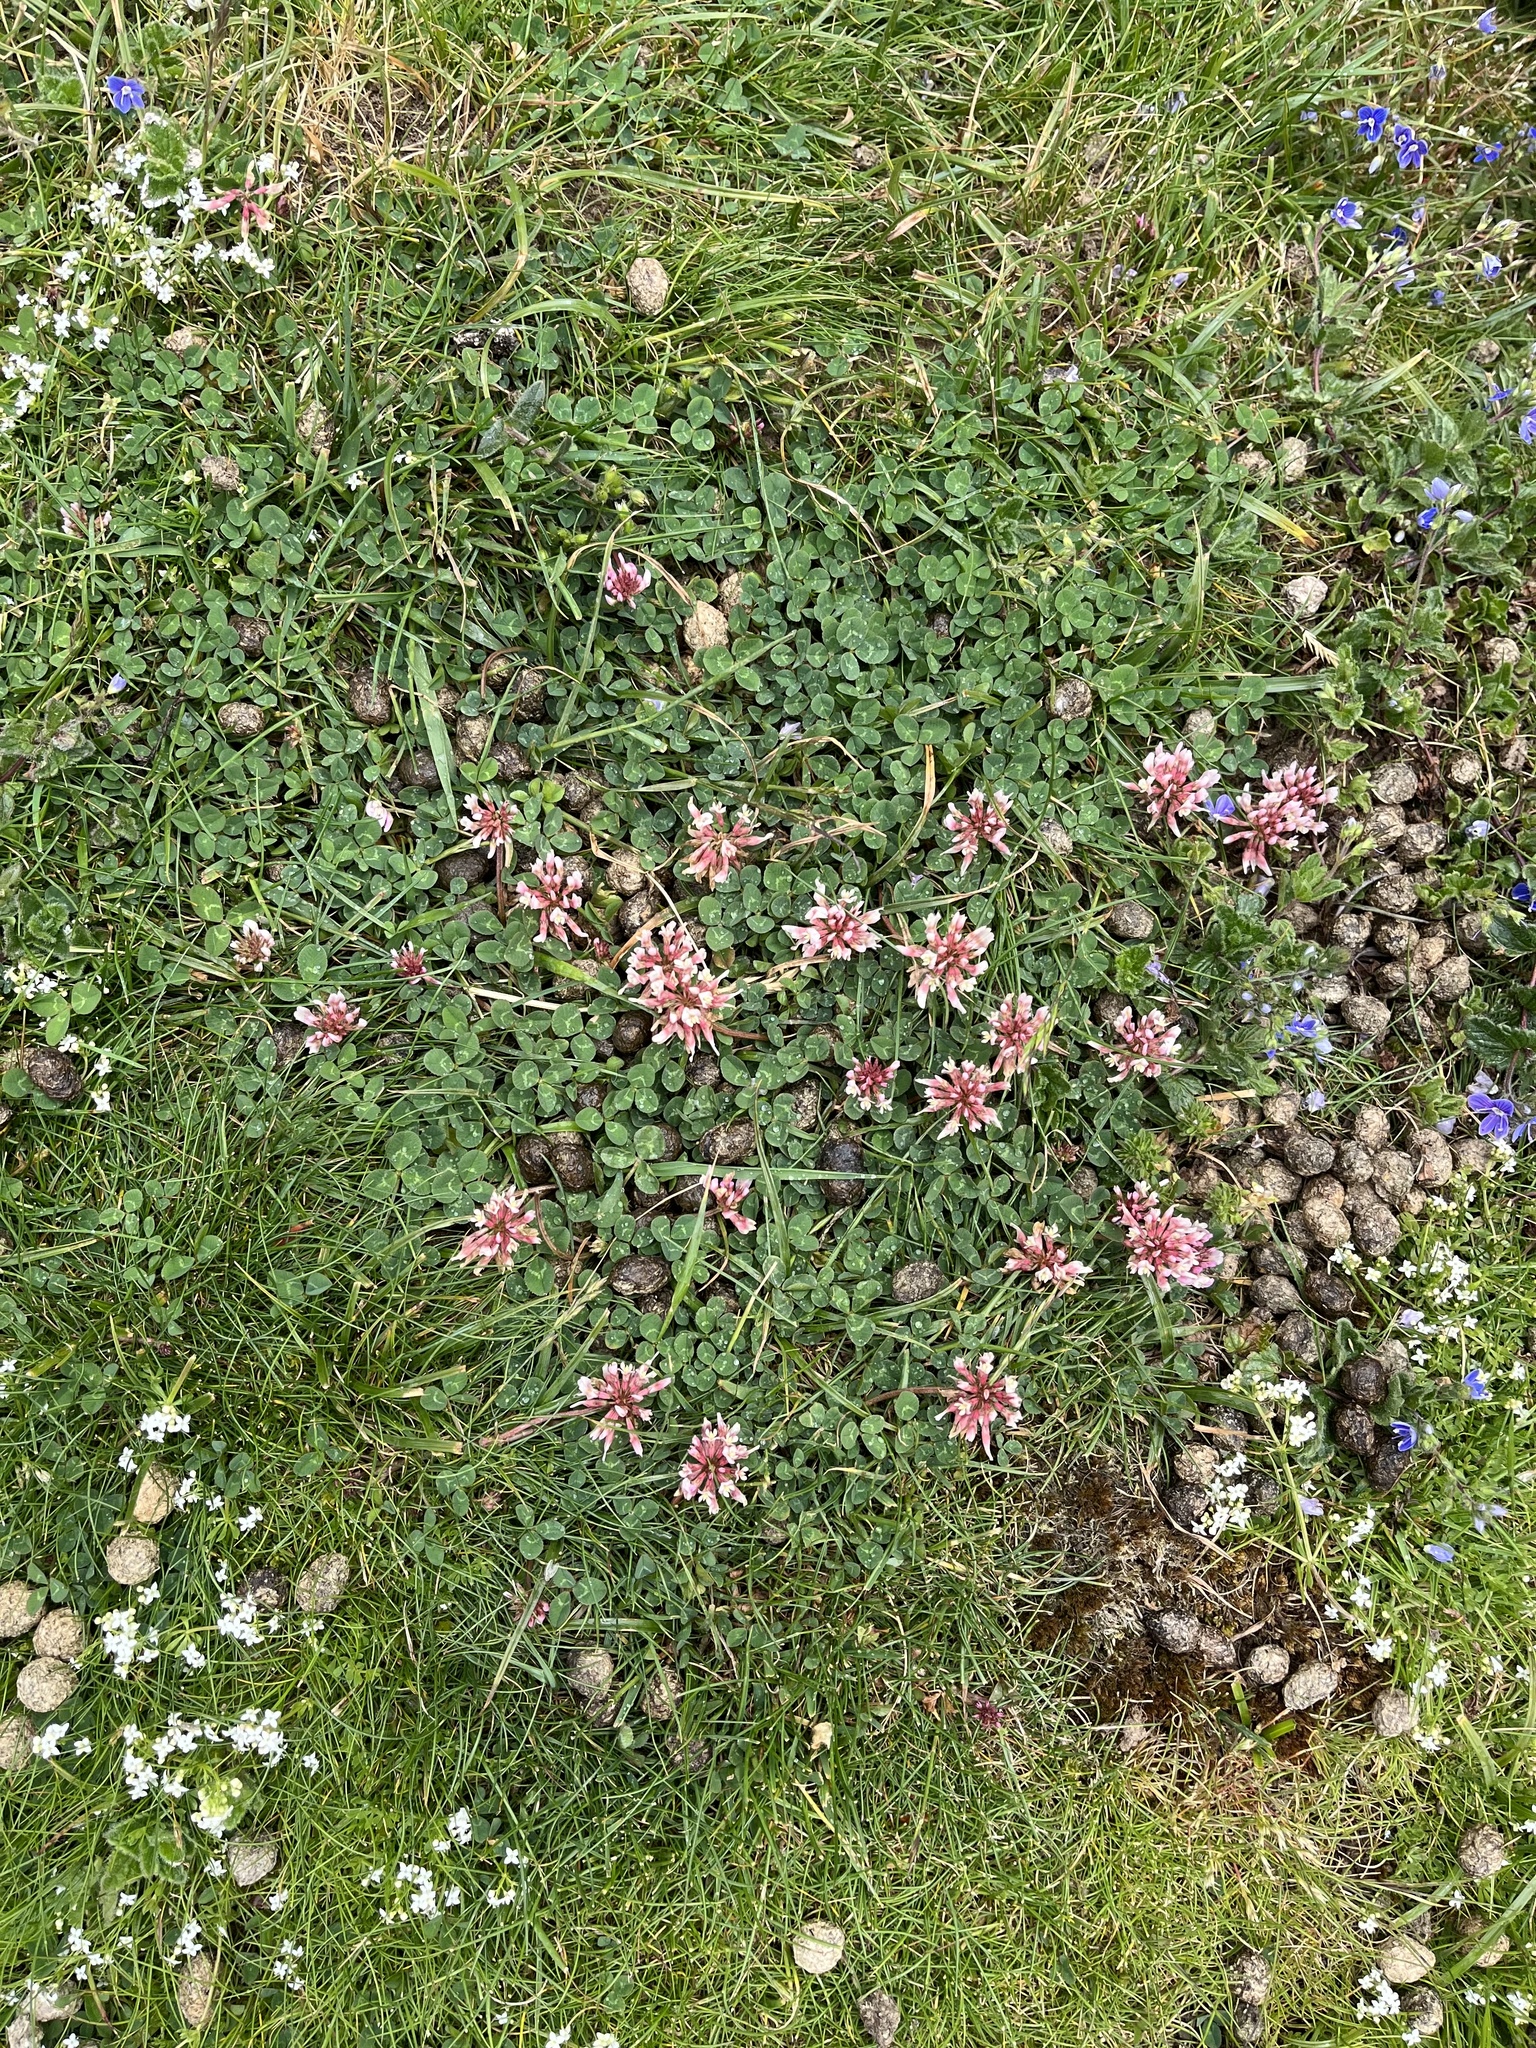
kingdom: Plantae
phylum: Tracheophyta
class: Magnoliopsida
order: Fabales
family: Fabaceae
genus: Trifolium
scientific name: Trifolium repens
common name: White clover
